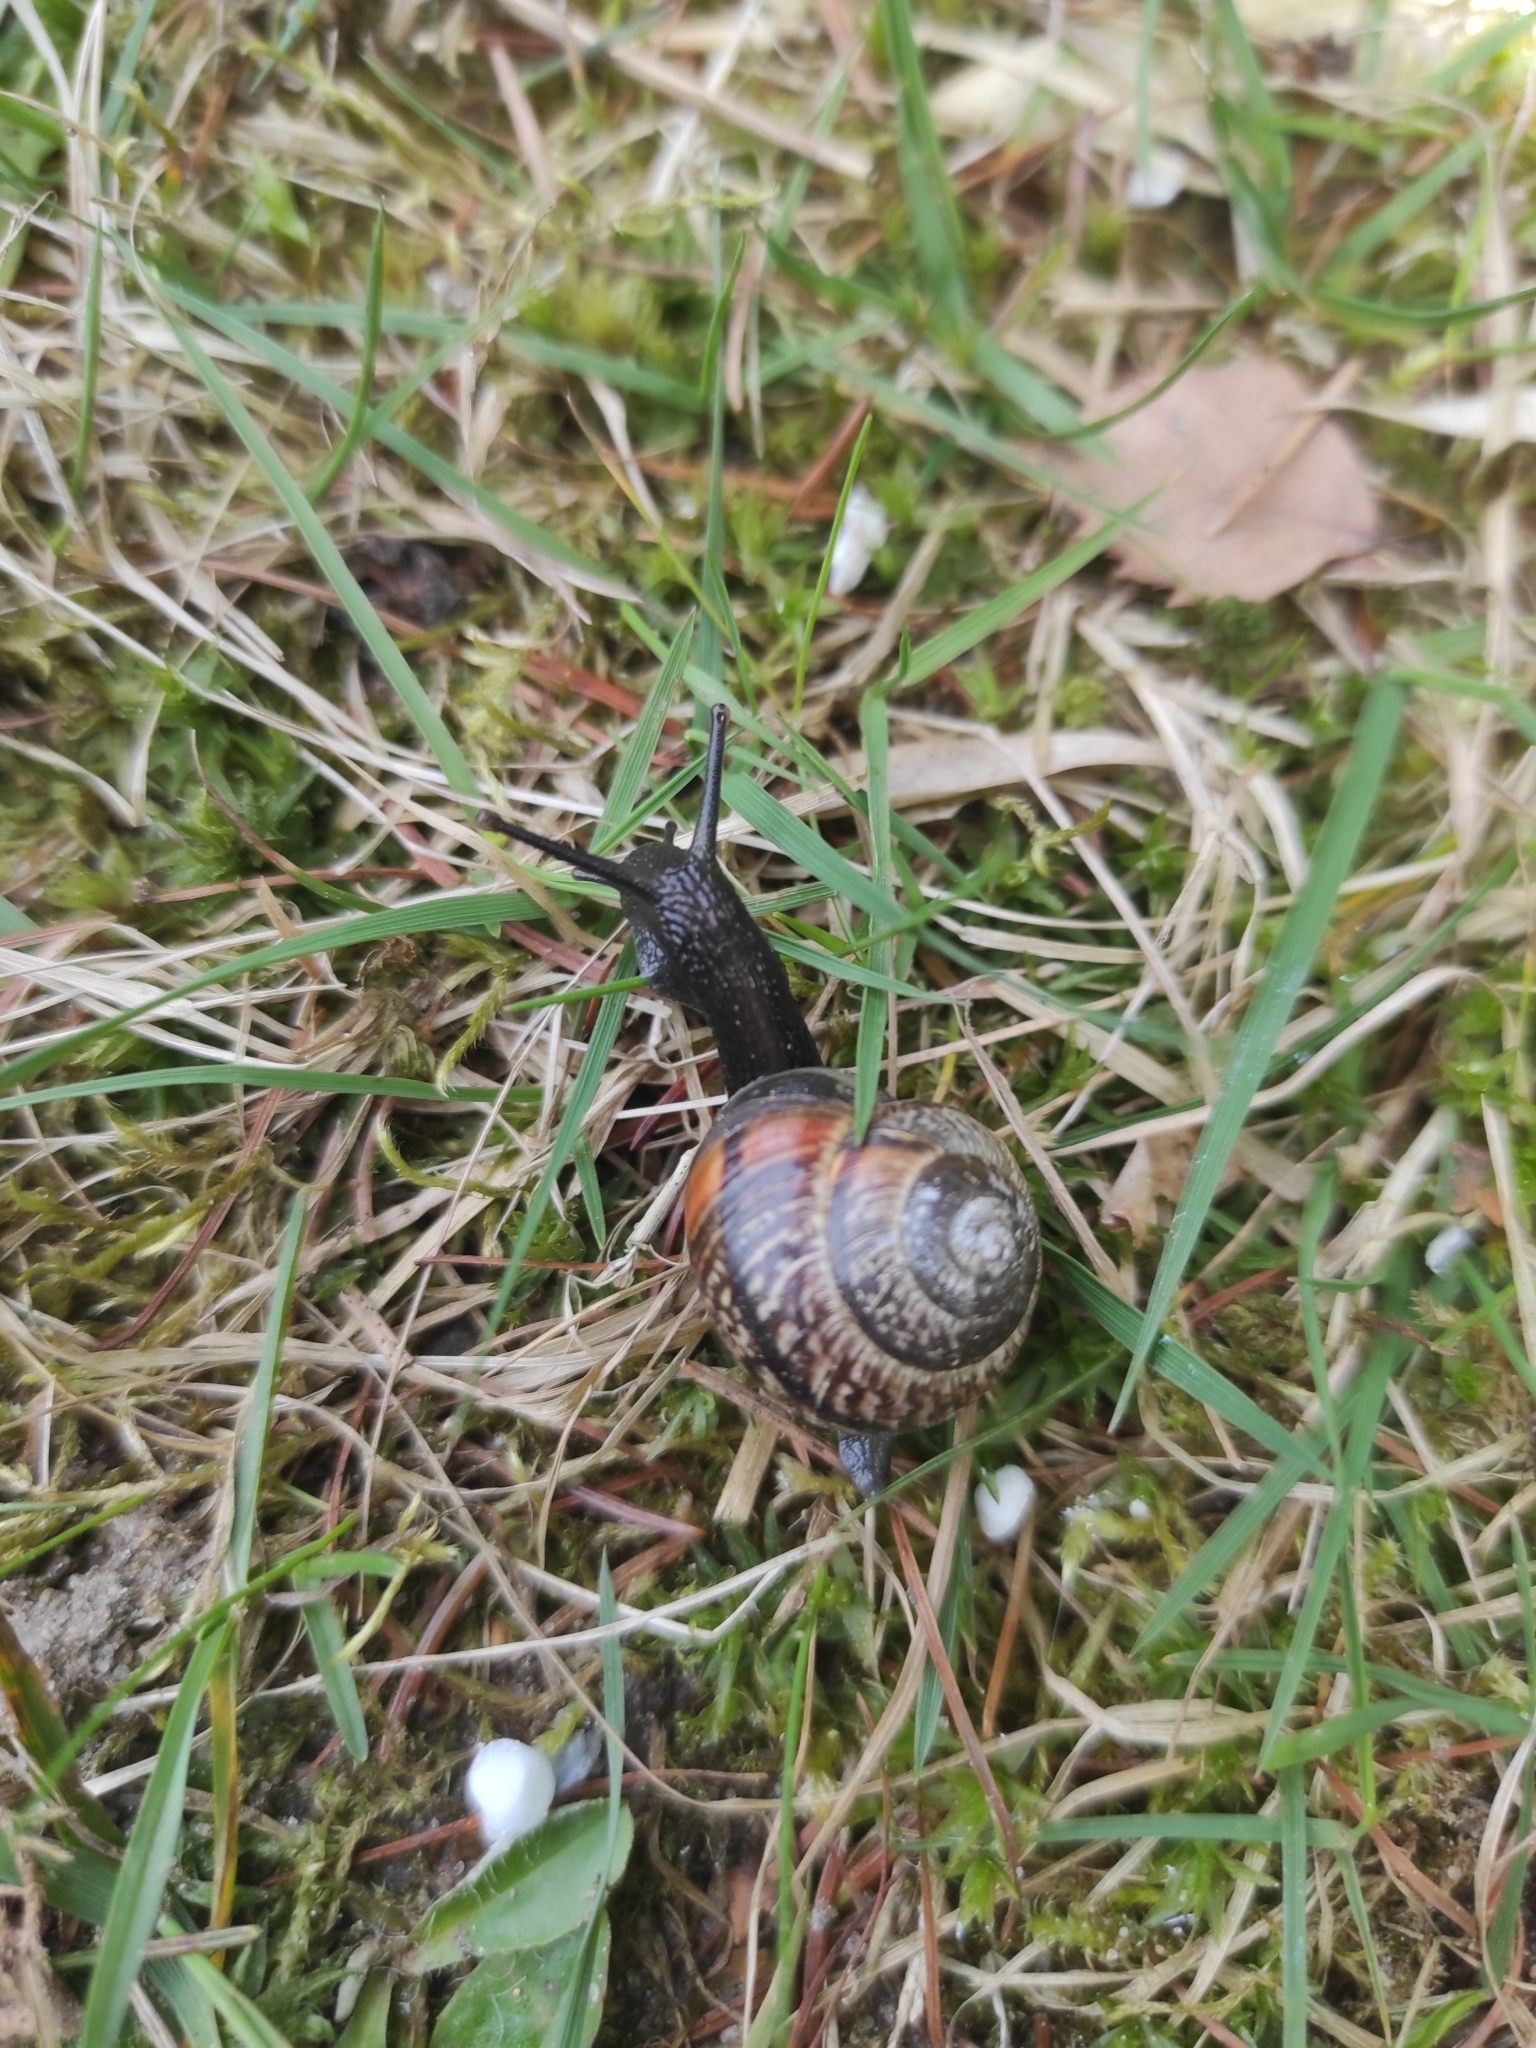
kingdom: Animalia
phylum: Mollusca
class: Gastropoda
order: Stylommatophora
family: Helicidae
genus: Arianta
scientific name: Arianta arbustorum
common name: Copse snail
